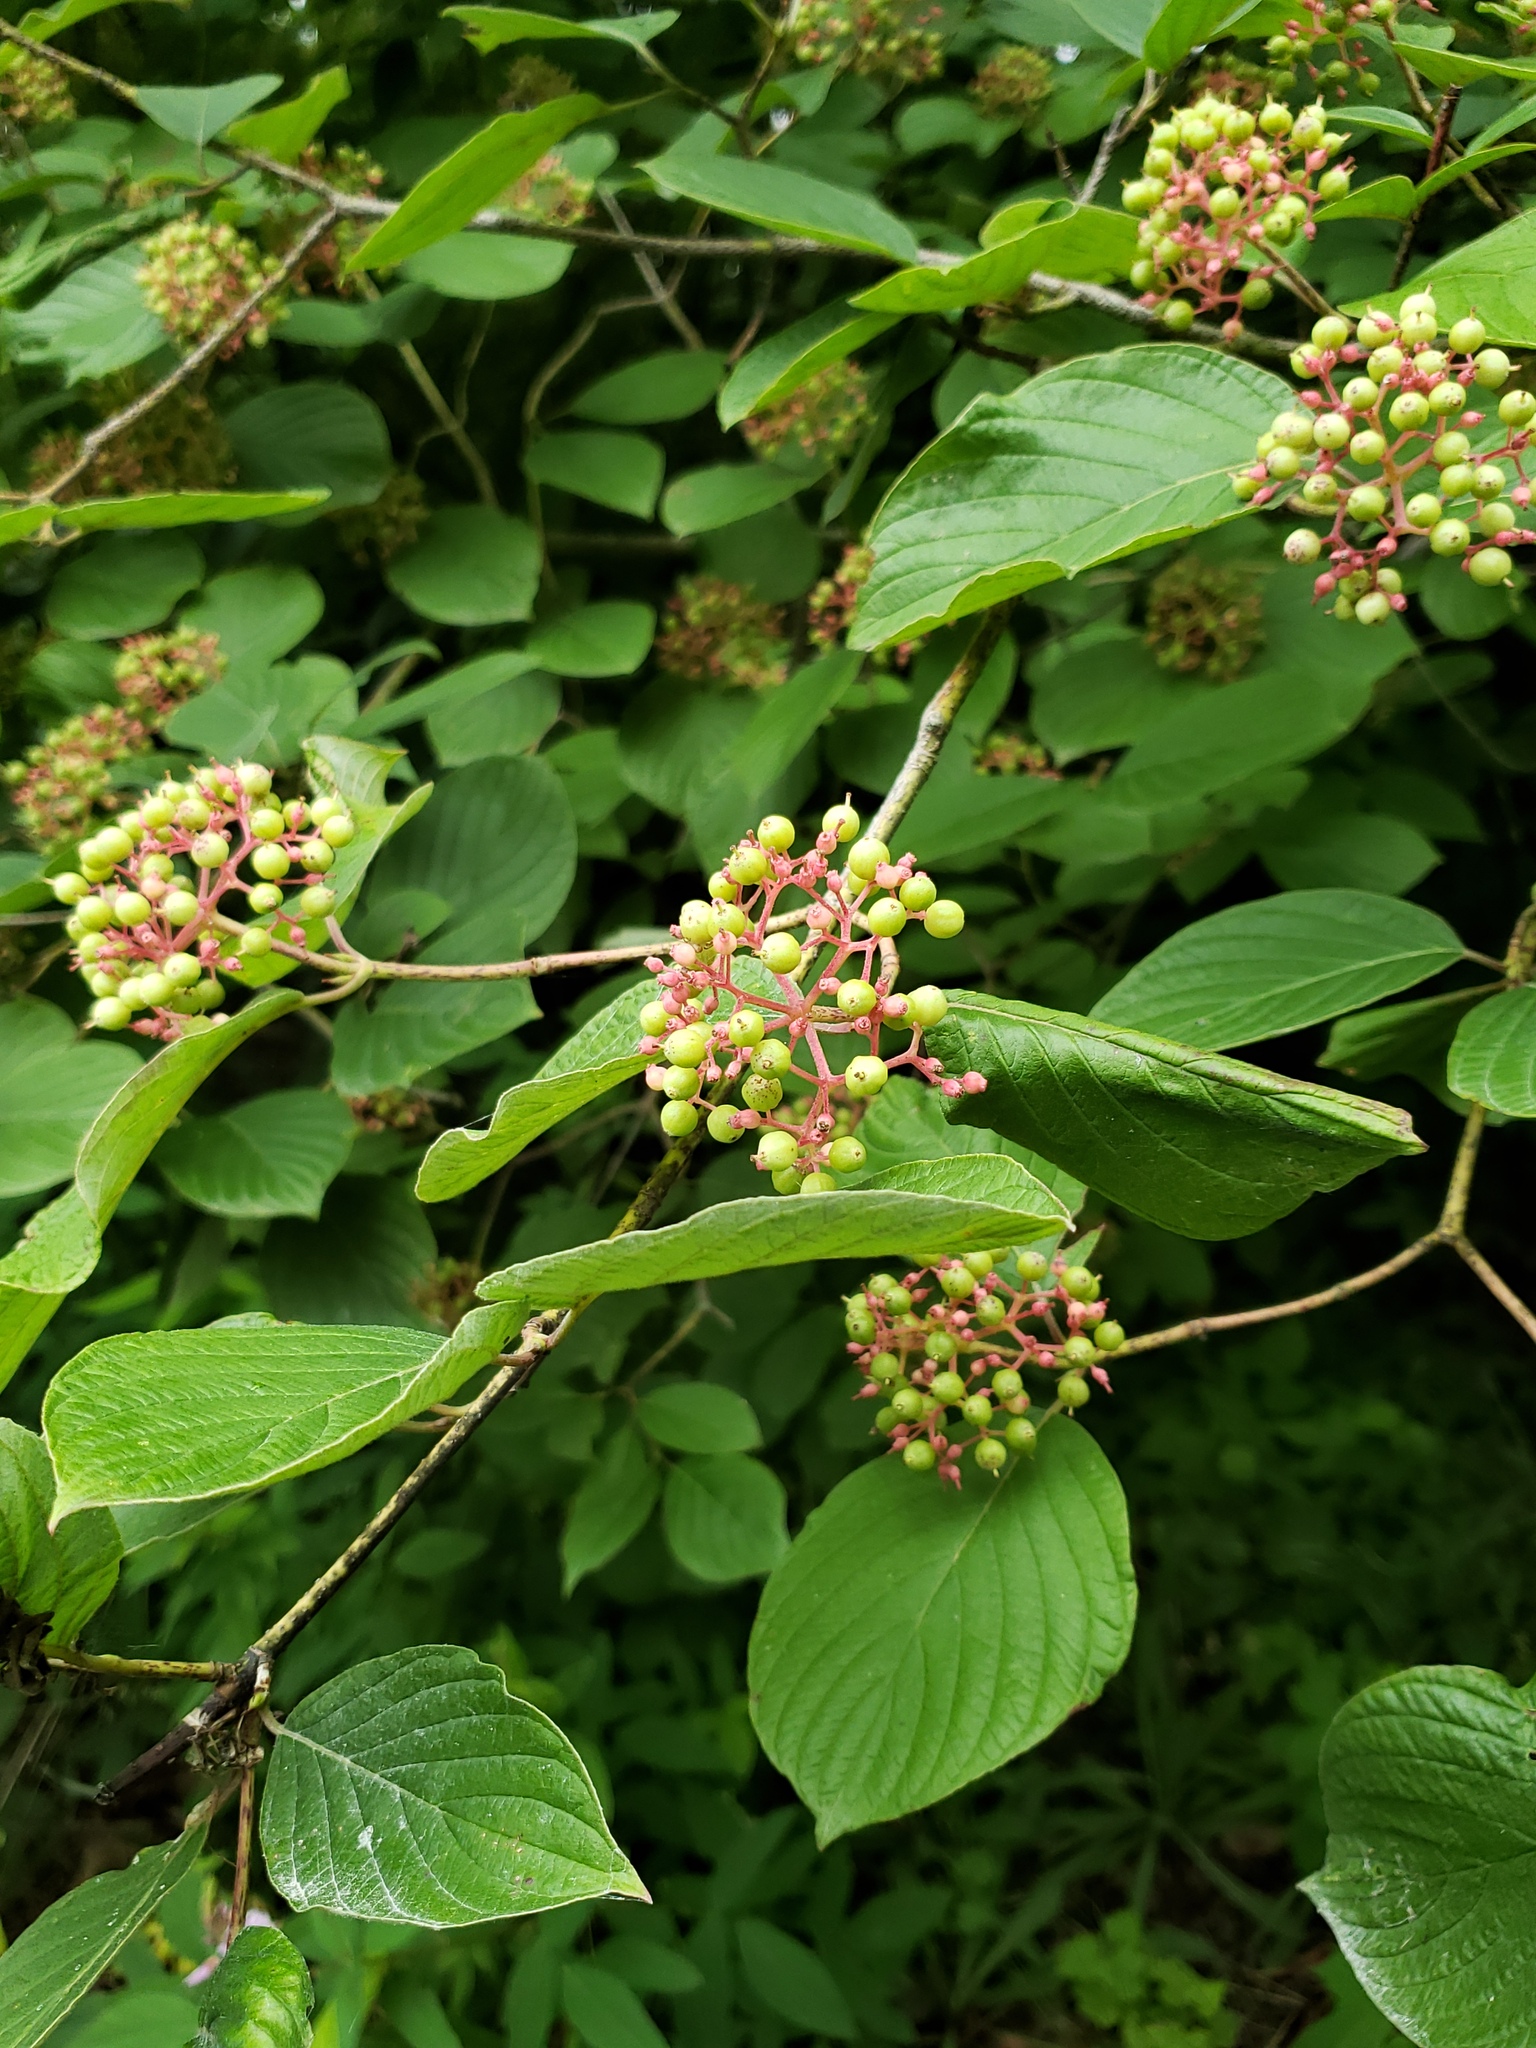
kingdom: Plantae
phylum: Tracheophyta
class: Magnoliopsida
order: Cornales
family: Cornaceae
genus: Cornus
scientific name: Cornus rugosa
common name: Round-leaf dogwood
